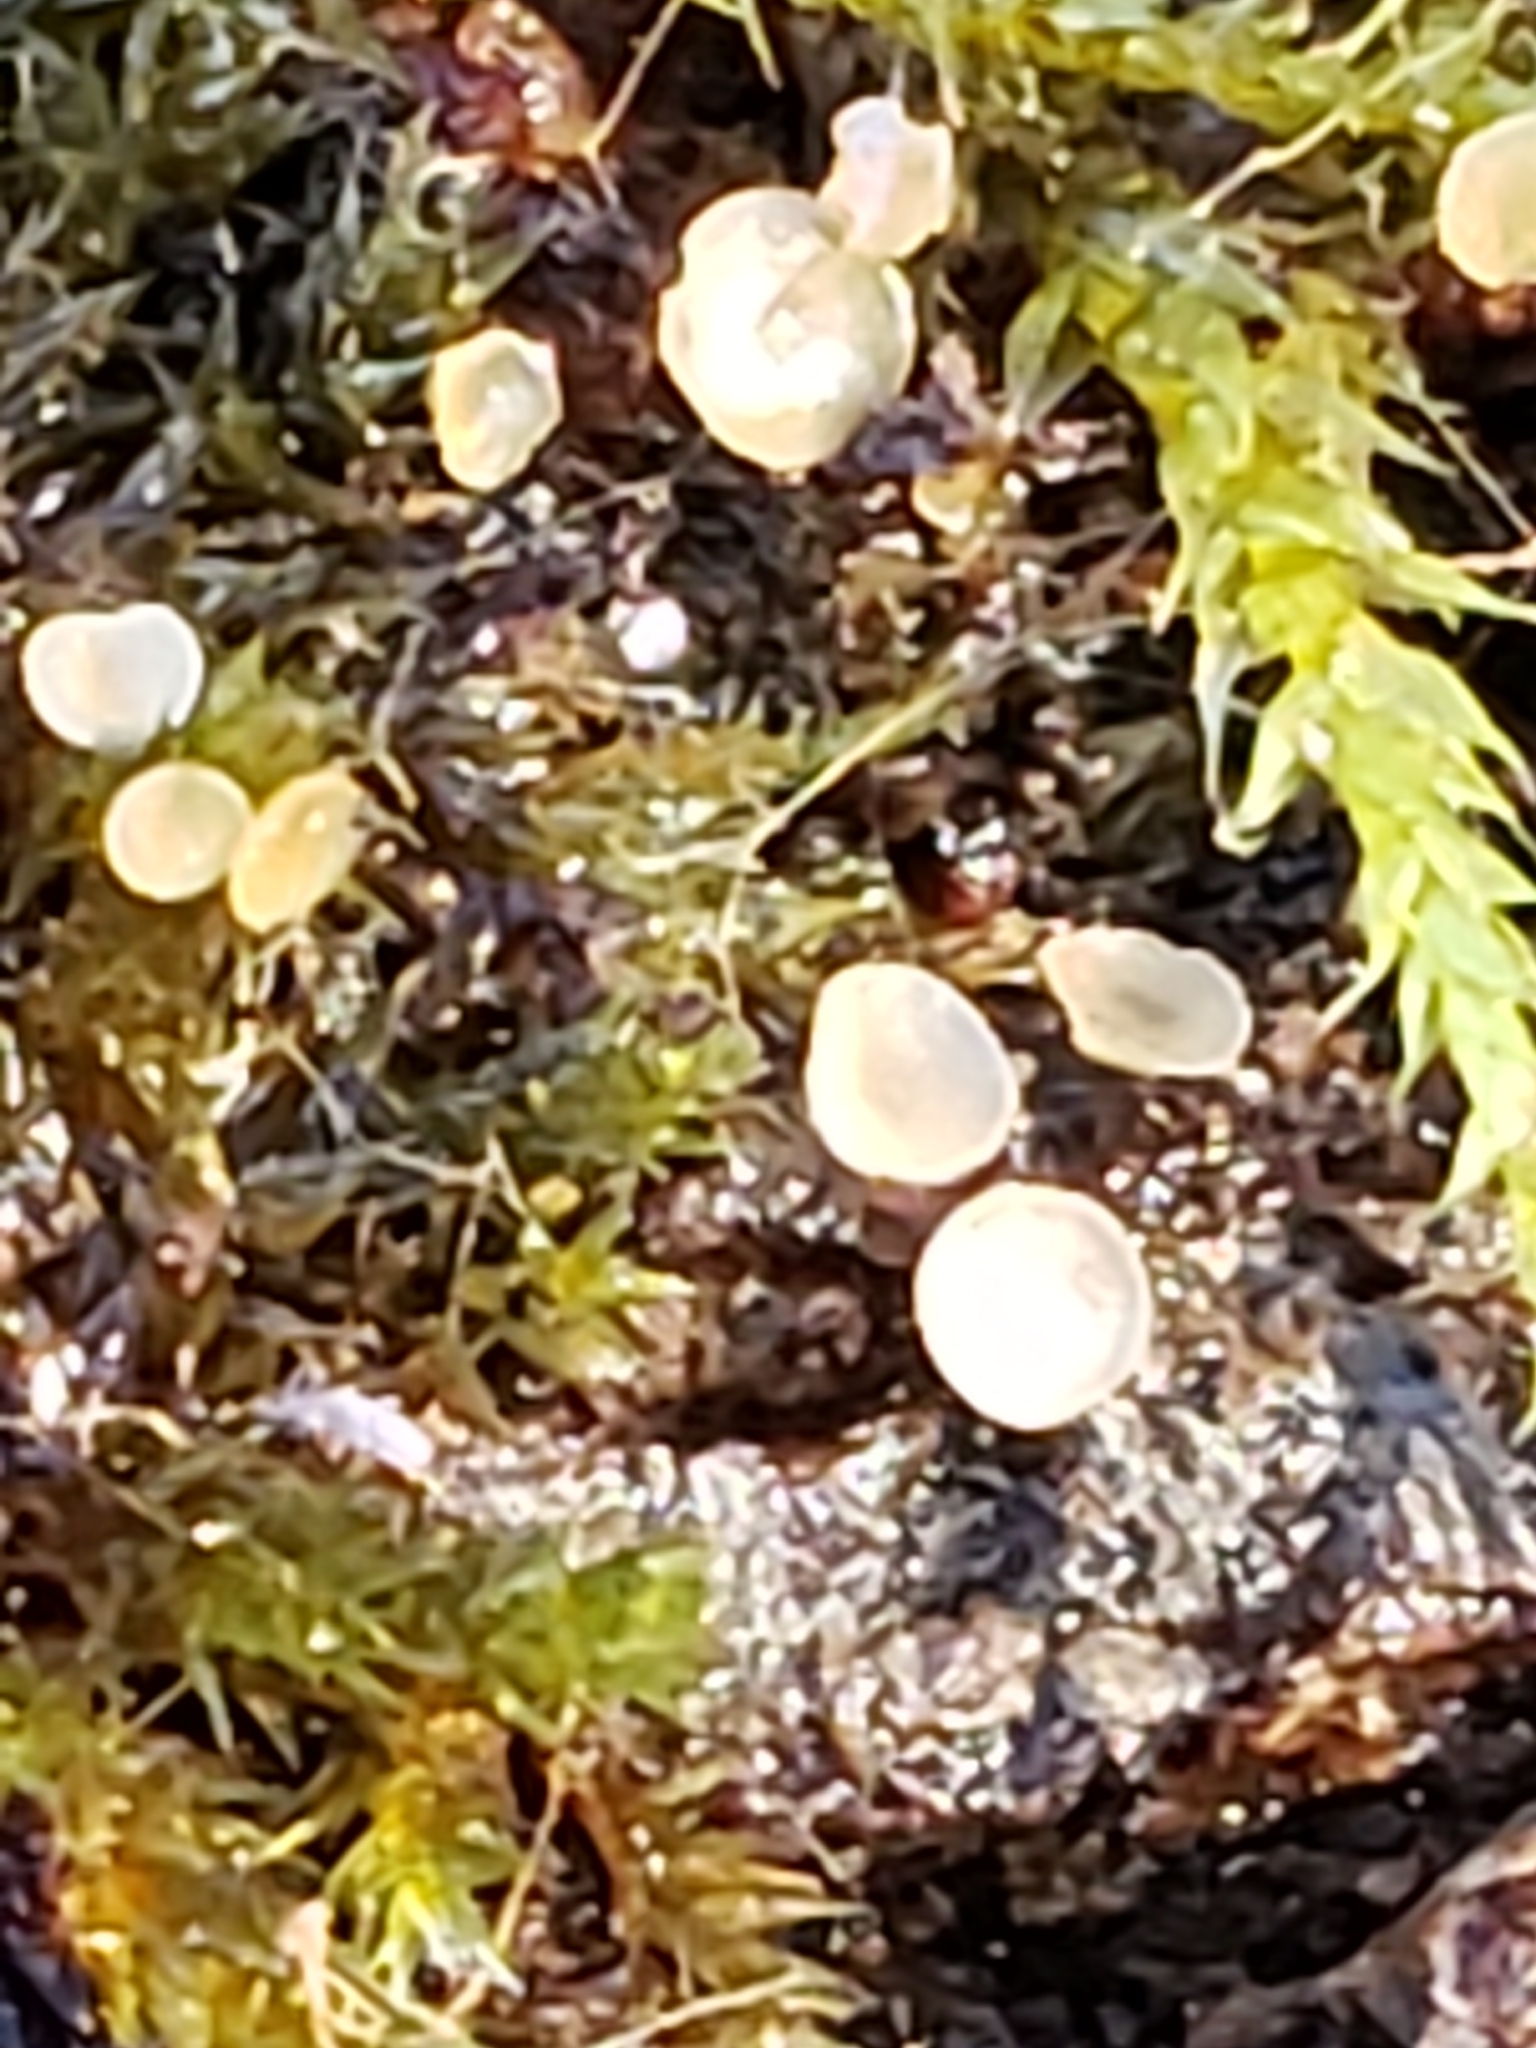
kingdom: Fungi
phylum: Ascomycota
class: Orbiliomycetes
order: Orbiliales
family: Orbiliaceae
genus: Hyalorbilia
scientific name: Hyalorbilia
